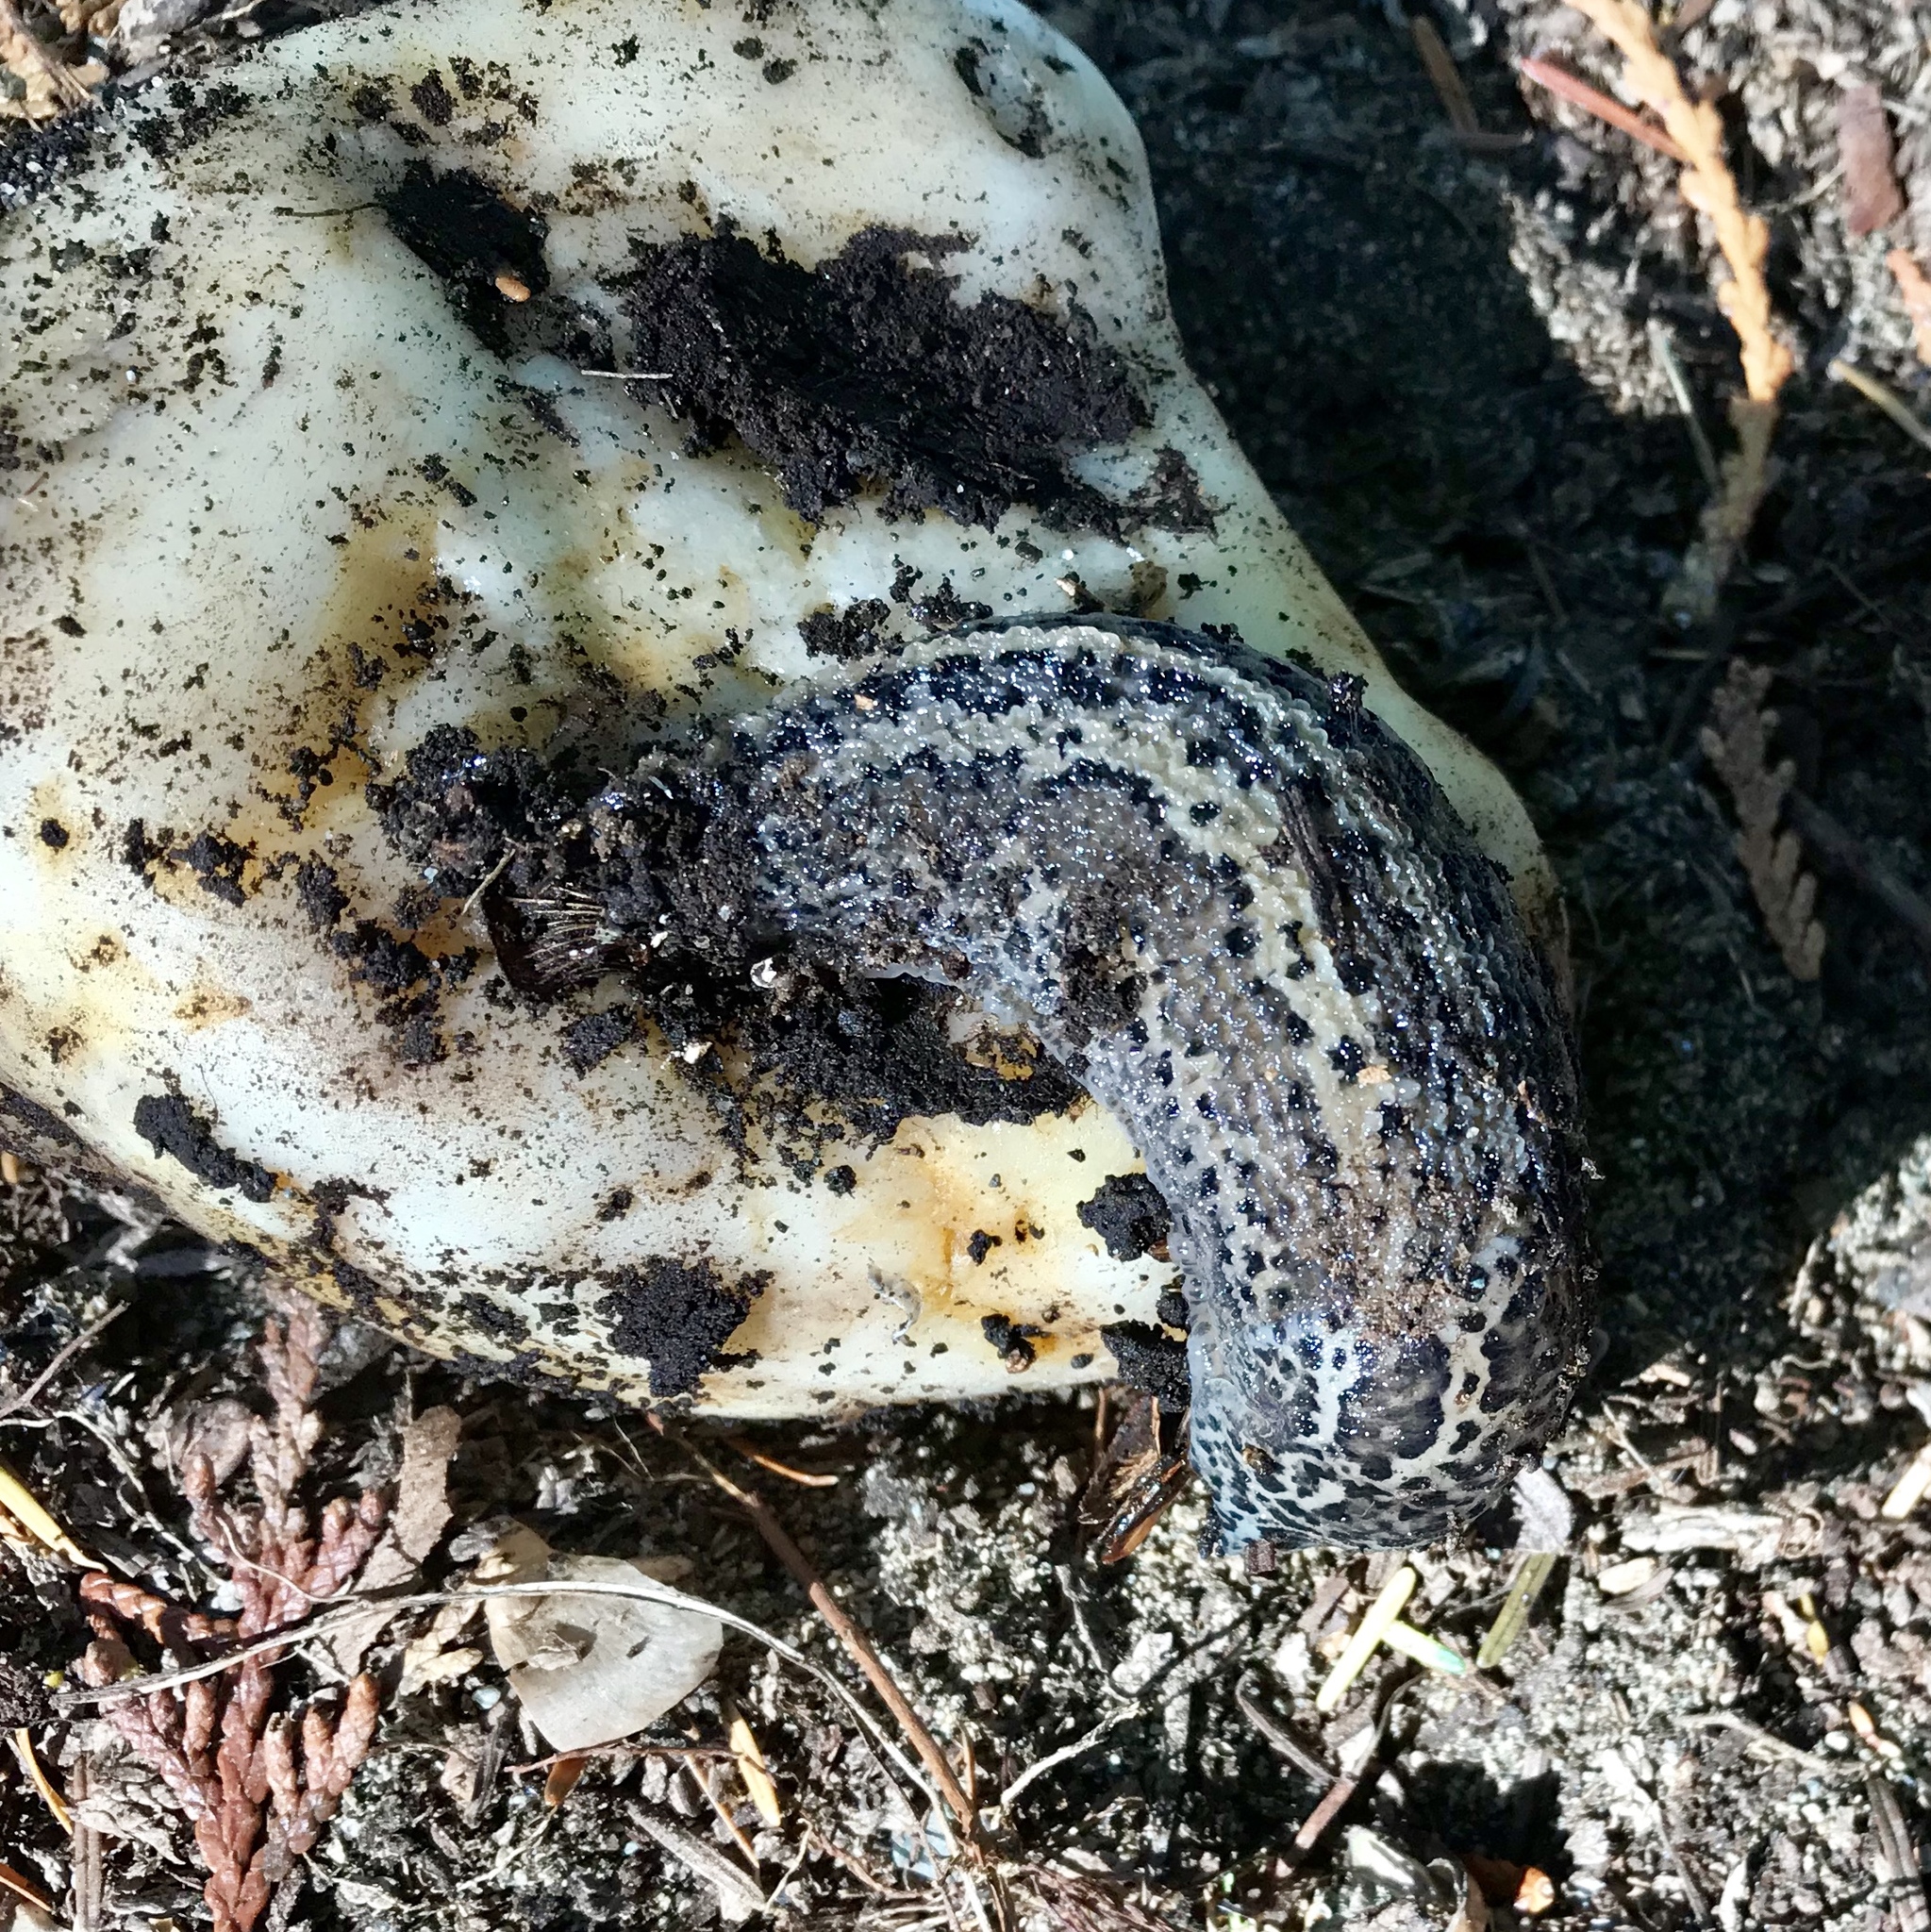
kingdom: Animalia
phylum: Mollusca
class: Gastropoda
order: Stylommatophora
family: Limacidae
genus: Limax
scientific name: Limax maximus
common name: Great grey slug
